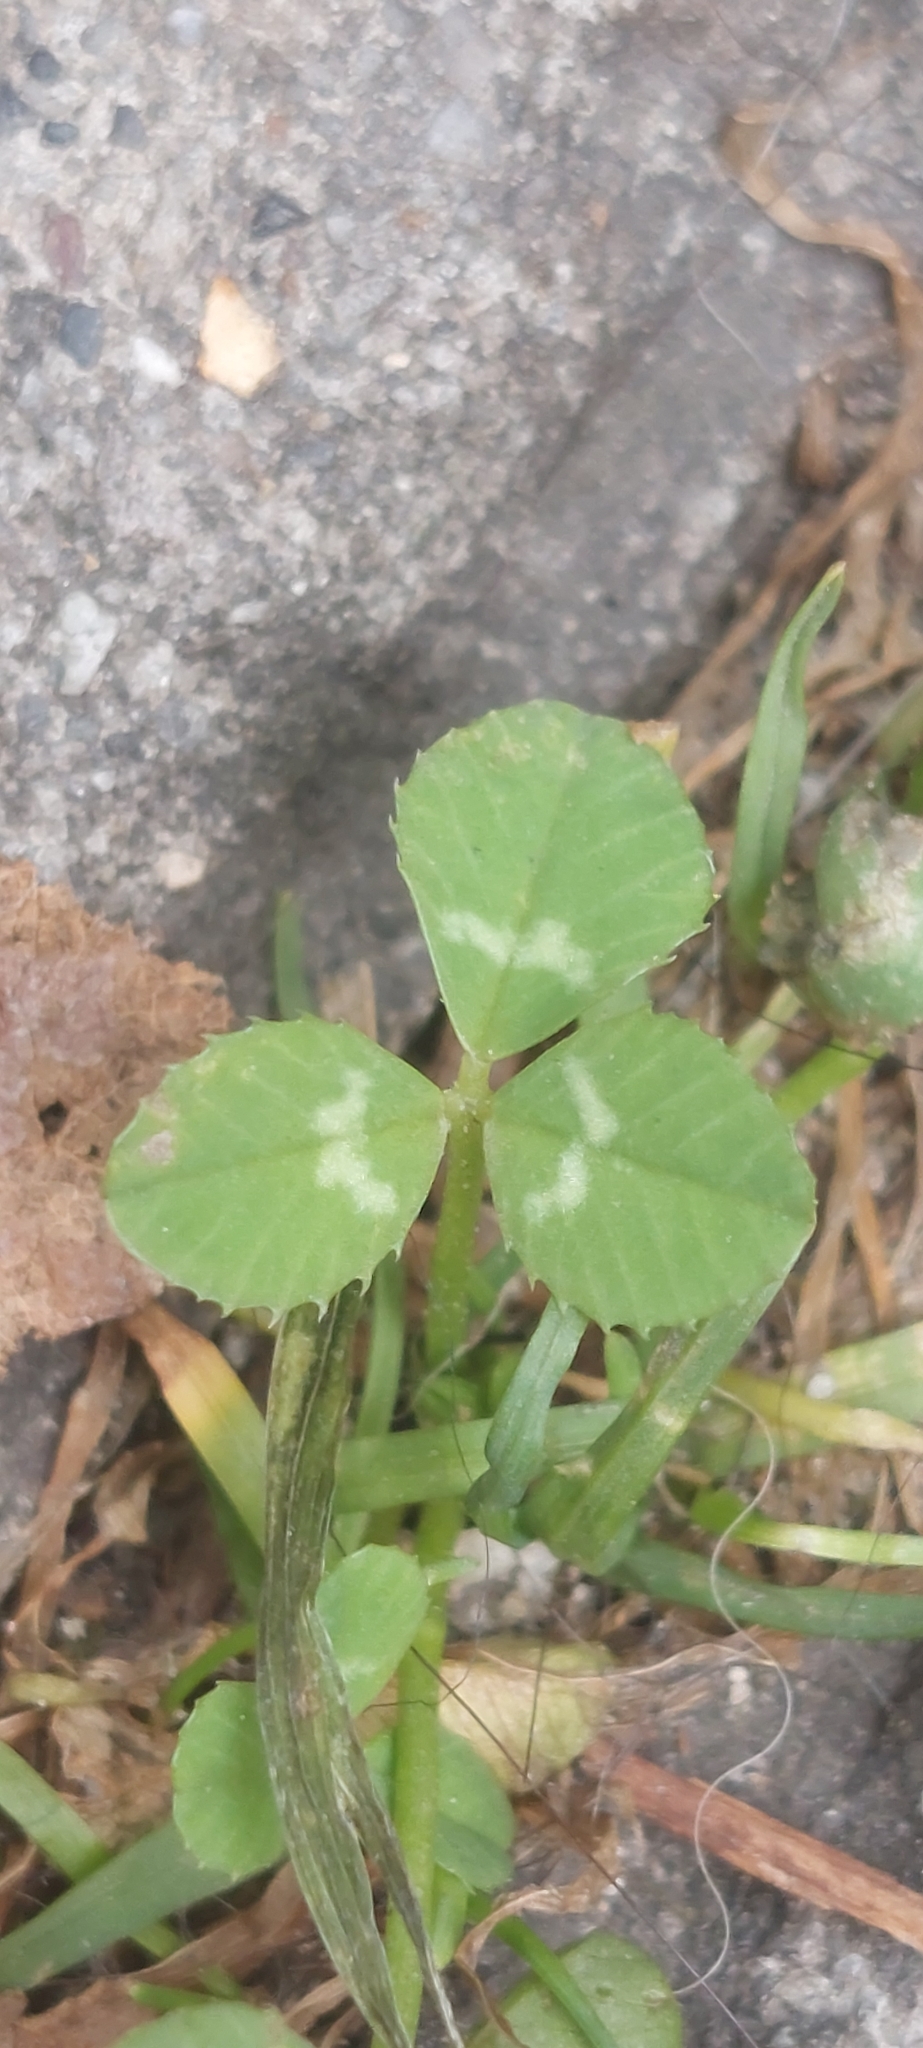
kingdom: Plantae
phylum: Tracheophyta
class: Magnoliopsida
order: Fabales
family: Fabaceae
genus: Trifolium
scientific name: Trifolium repens
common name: White clover
